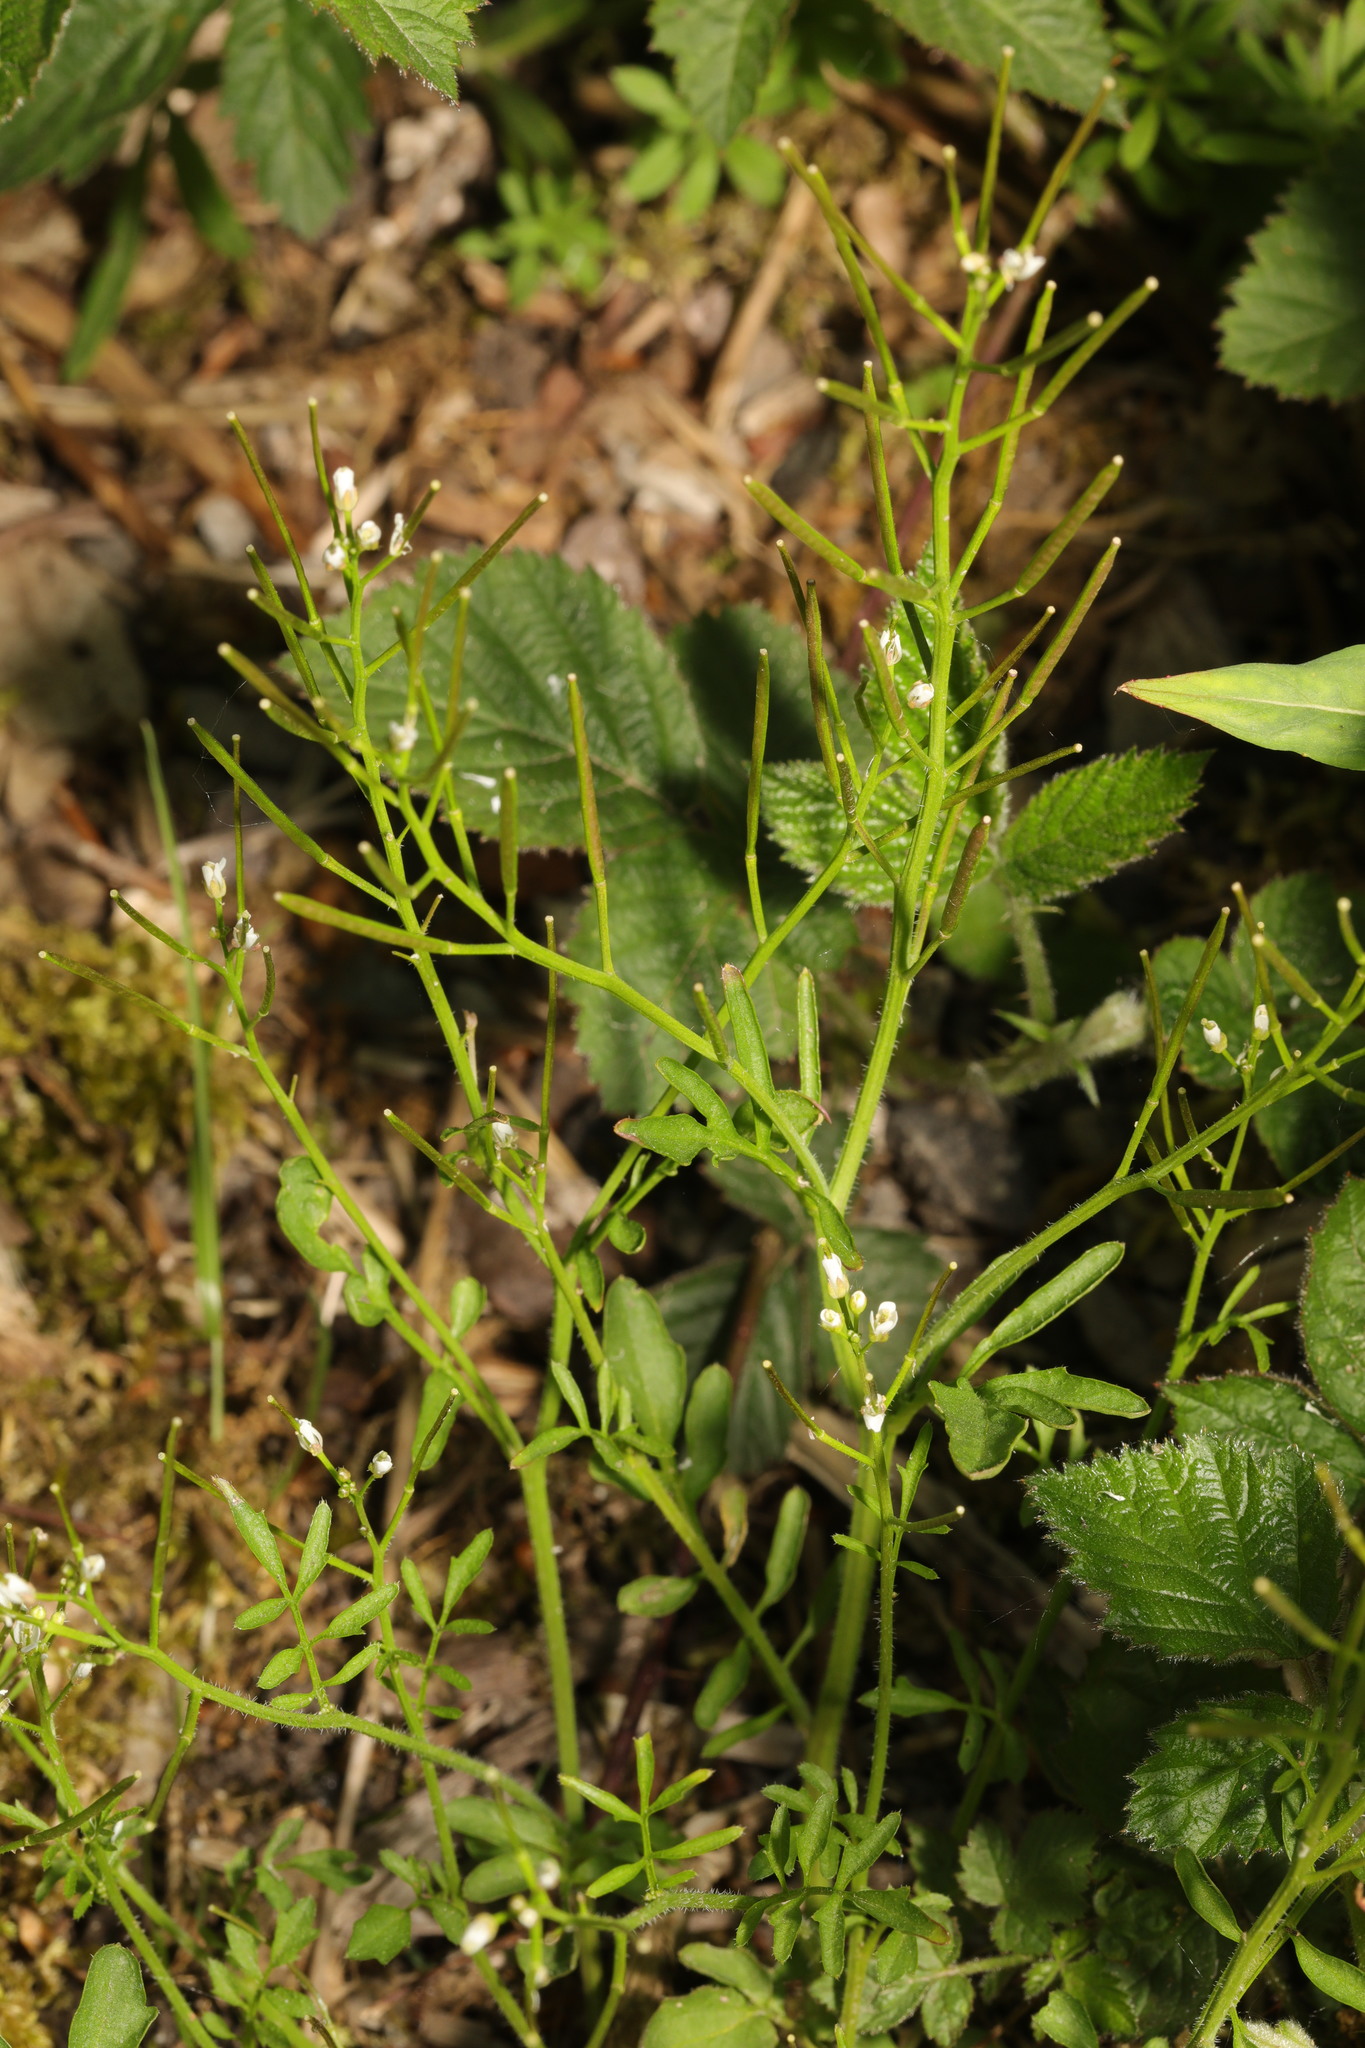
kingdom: Plantae
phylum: Tracheophyta
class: Magnoliopsida
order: Brassicales
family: Brassicaceae
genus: Cardamine
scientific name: Cardamine flexuosa
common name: Woodland bittercress
